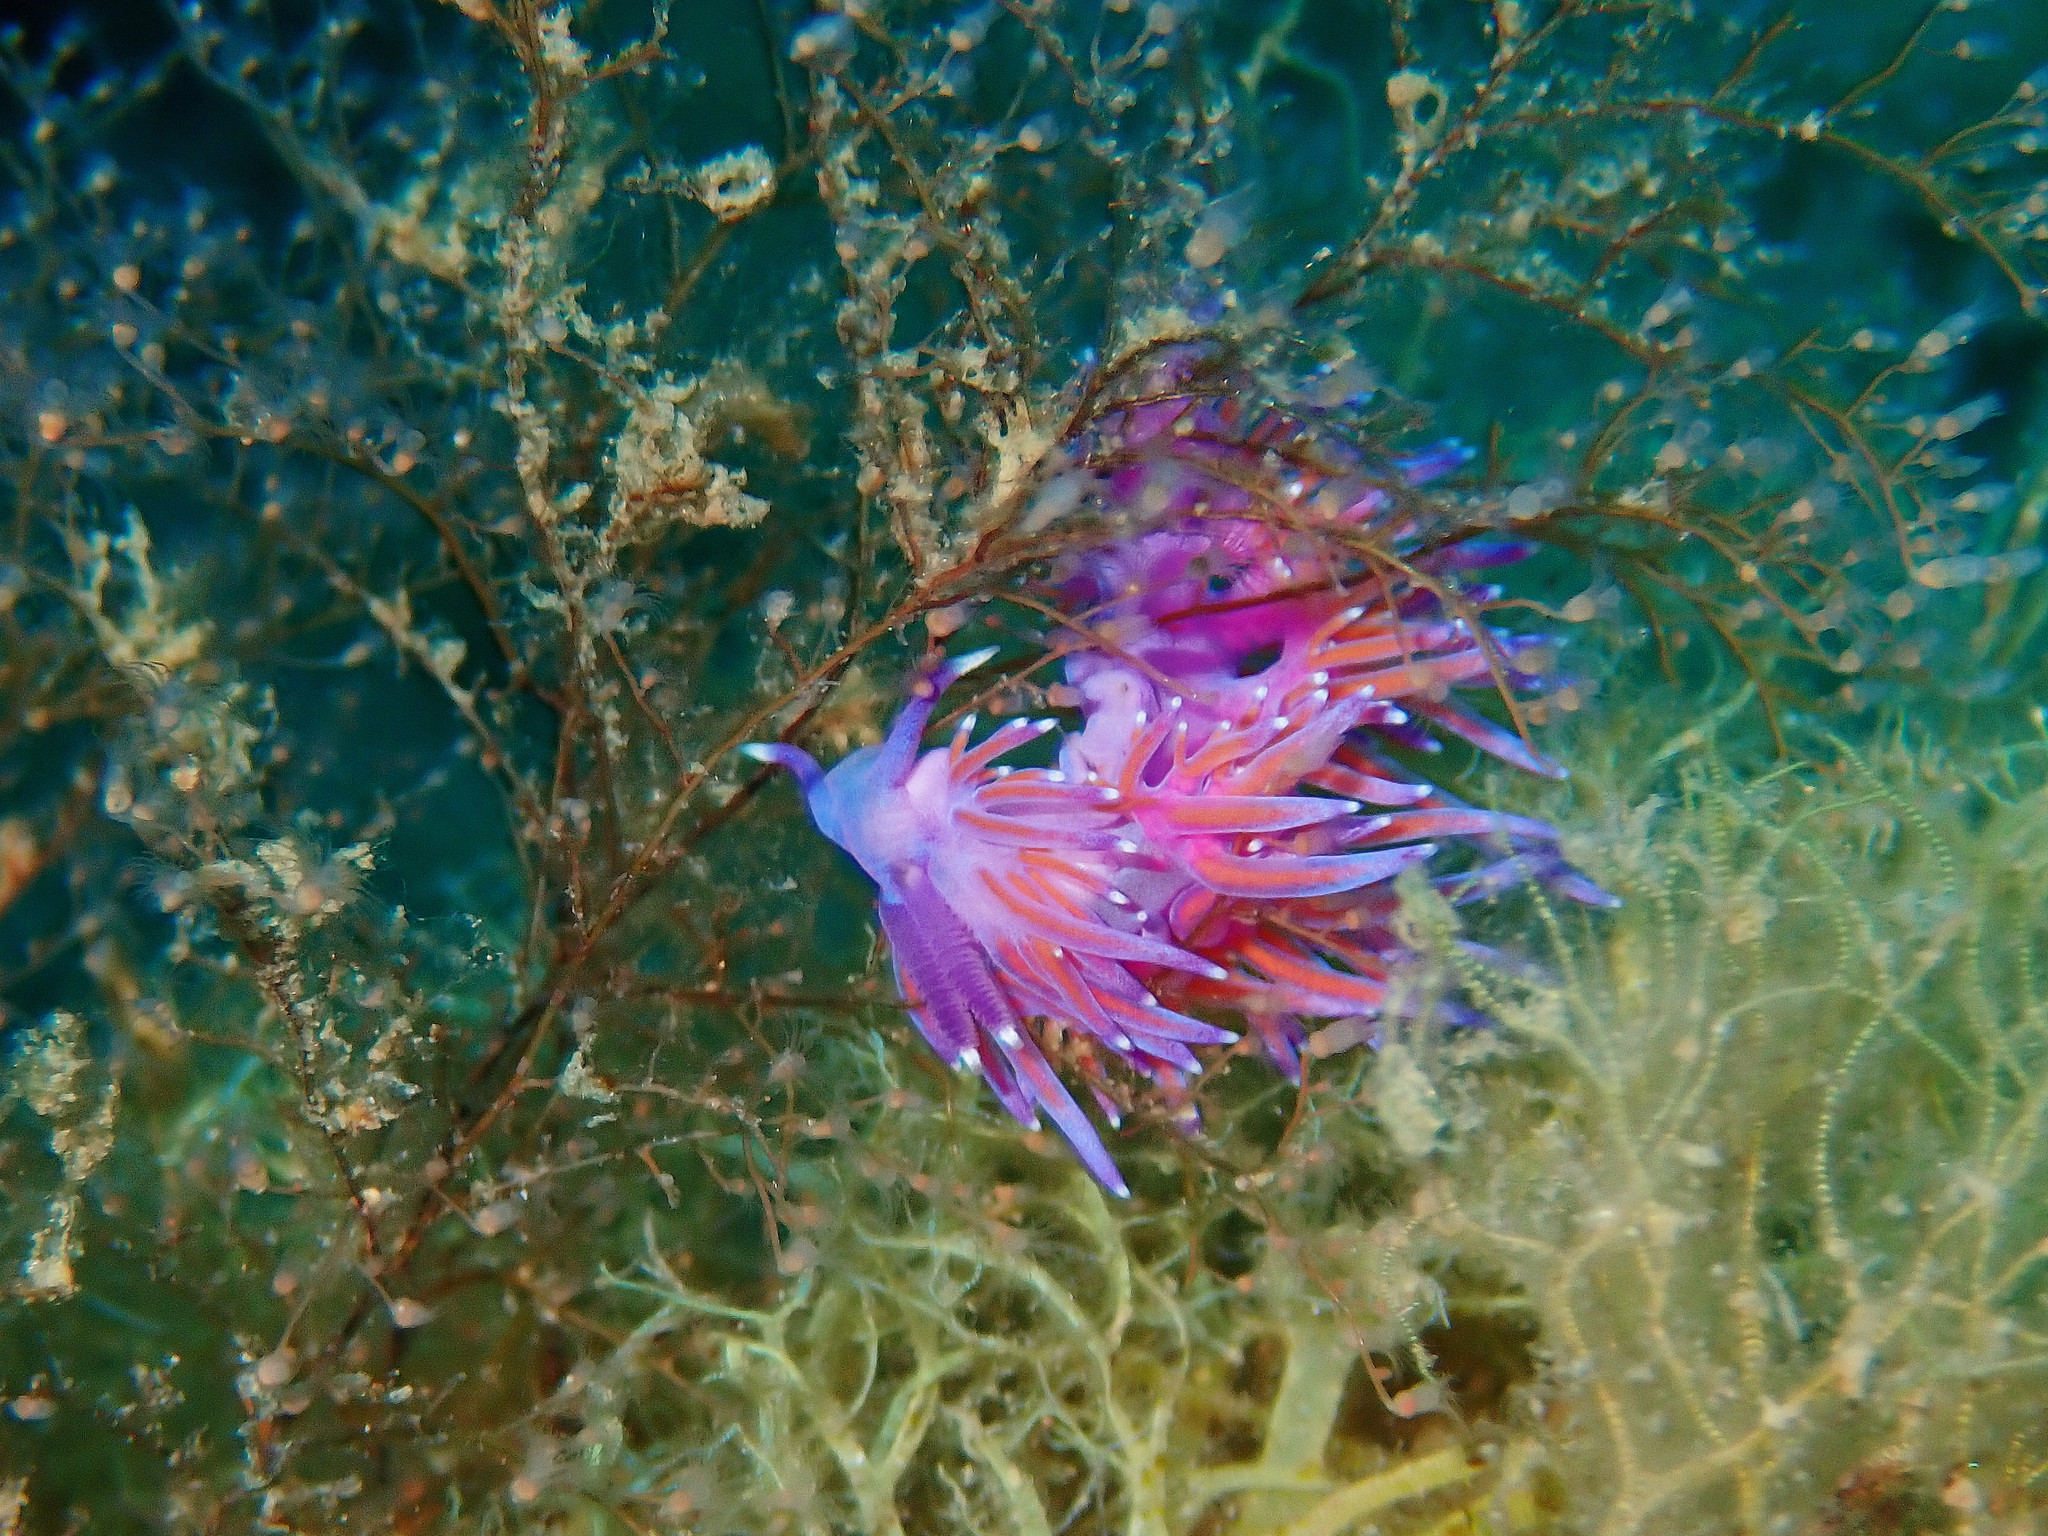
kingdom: Animalia
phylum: Mollusca
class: Gastropoda
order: Nudibranchia
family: Flabellinidae
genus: Flabellina
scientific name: Flabellina affinis
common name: Mediterranean violet aeolid
